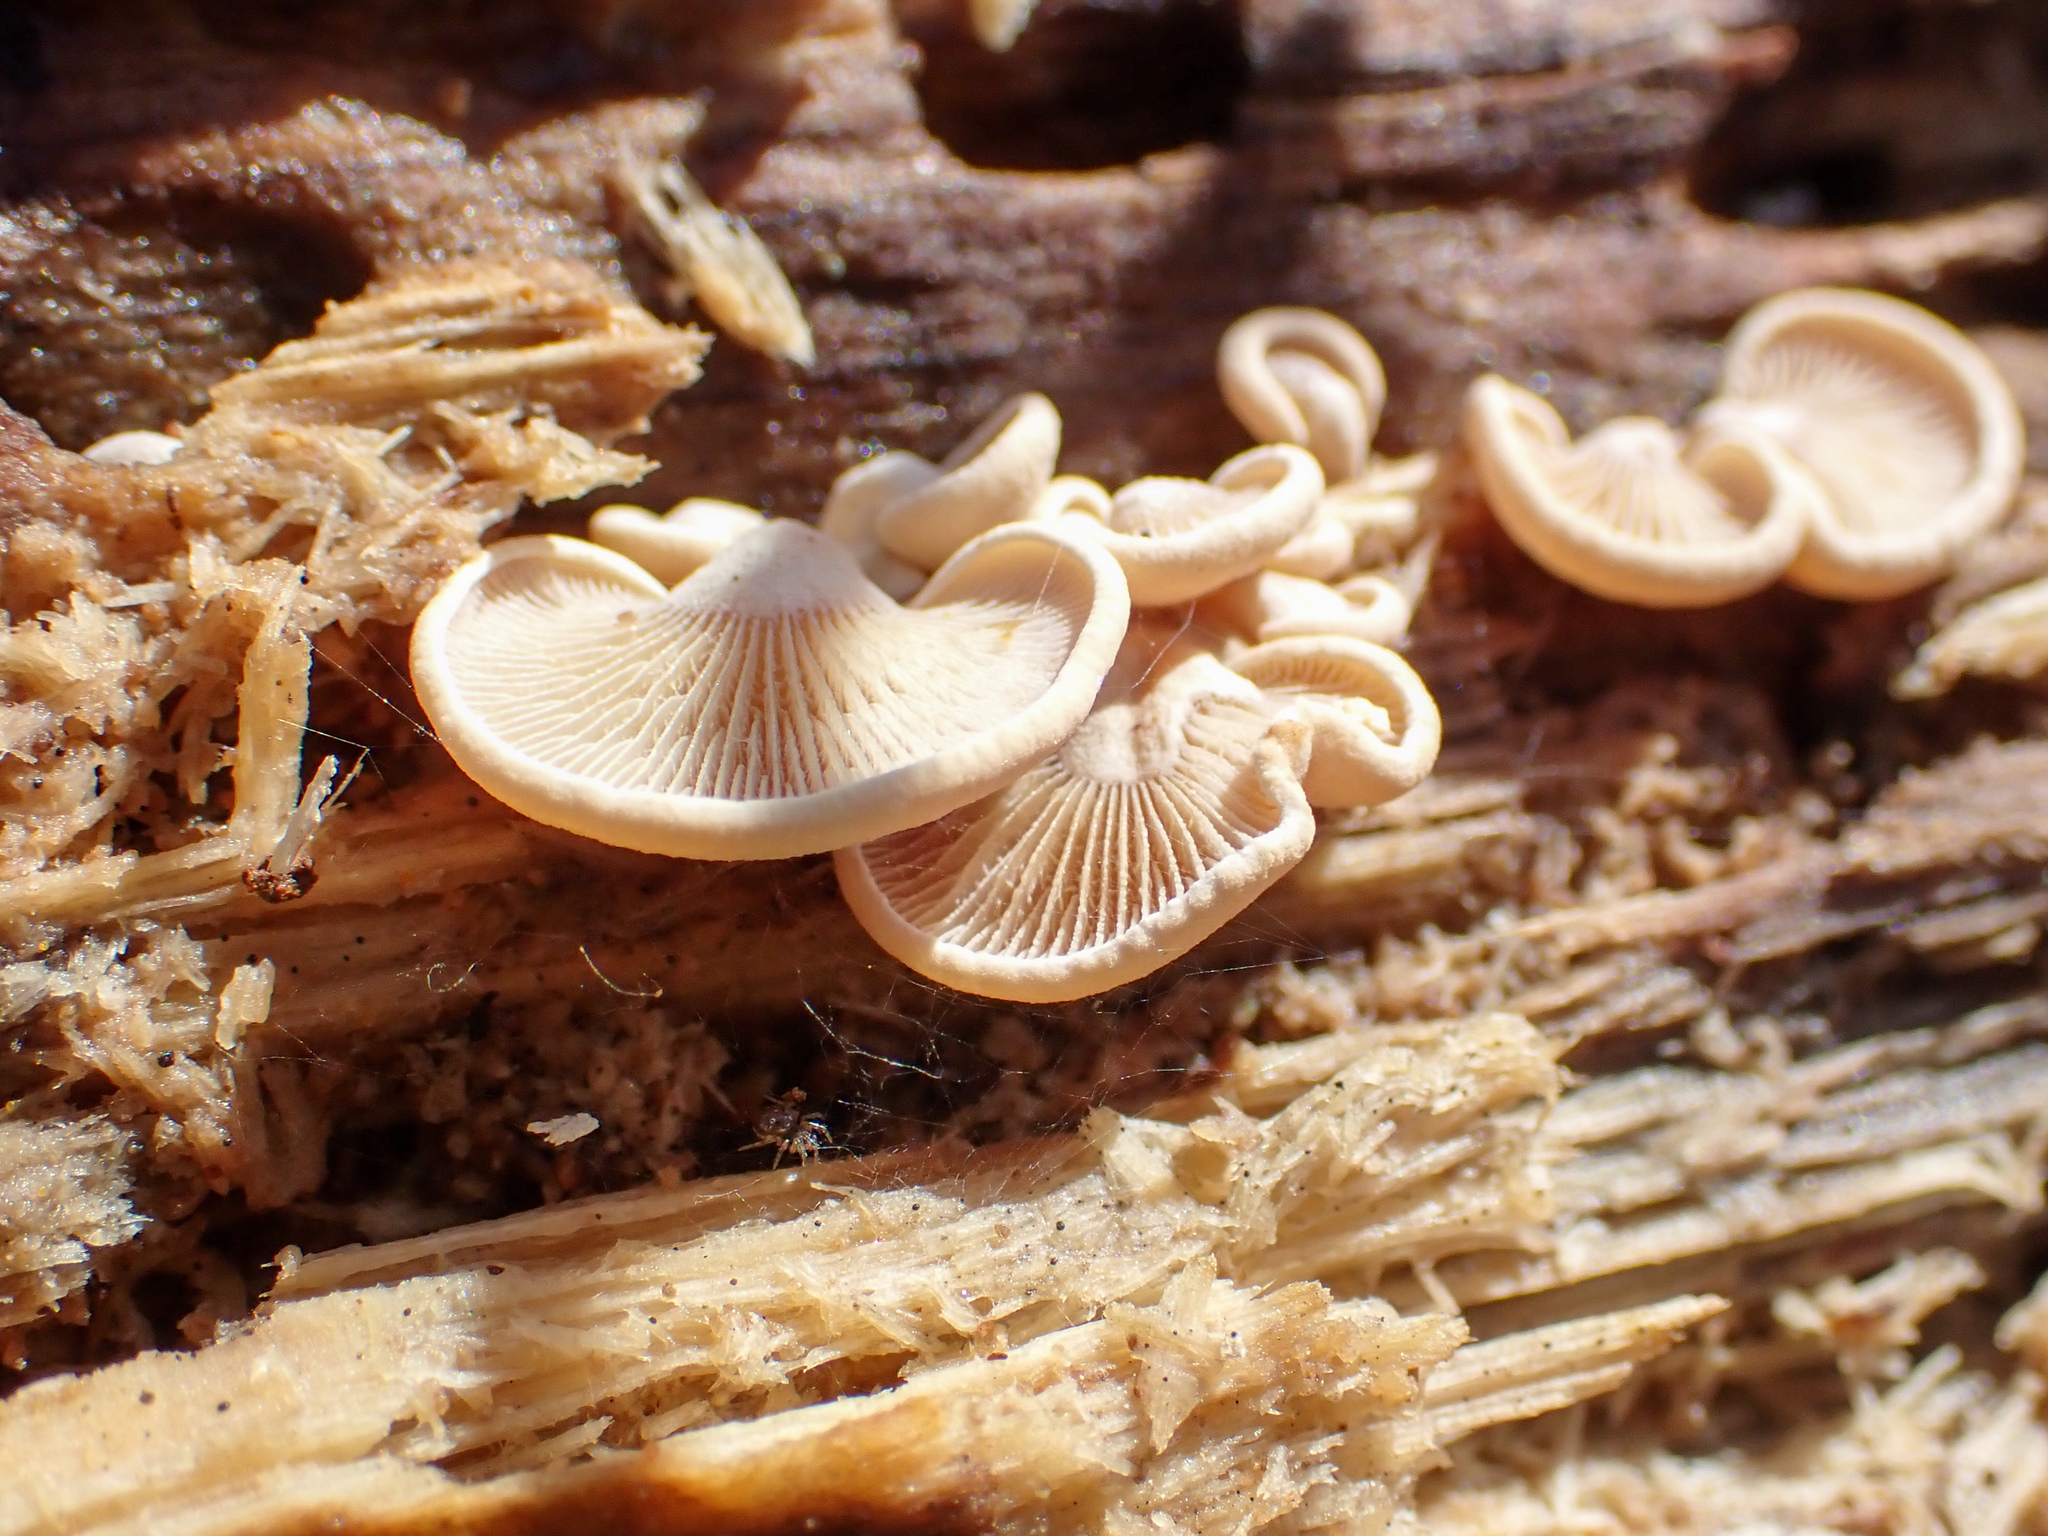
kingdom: Fungi
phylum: Basidiomycota
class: Agaricomycetes
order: Agaricales
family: Mycenaceae
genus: Panellus
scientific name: Panellus stipticus
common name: Bitter oysterling
